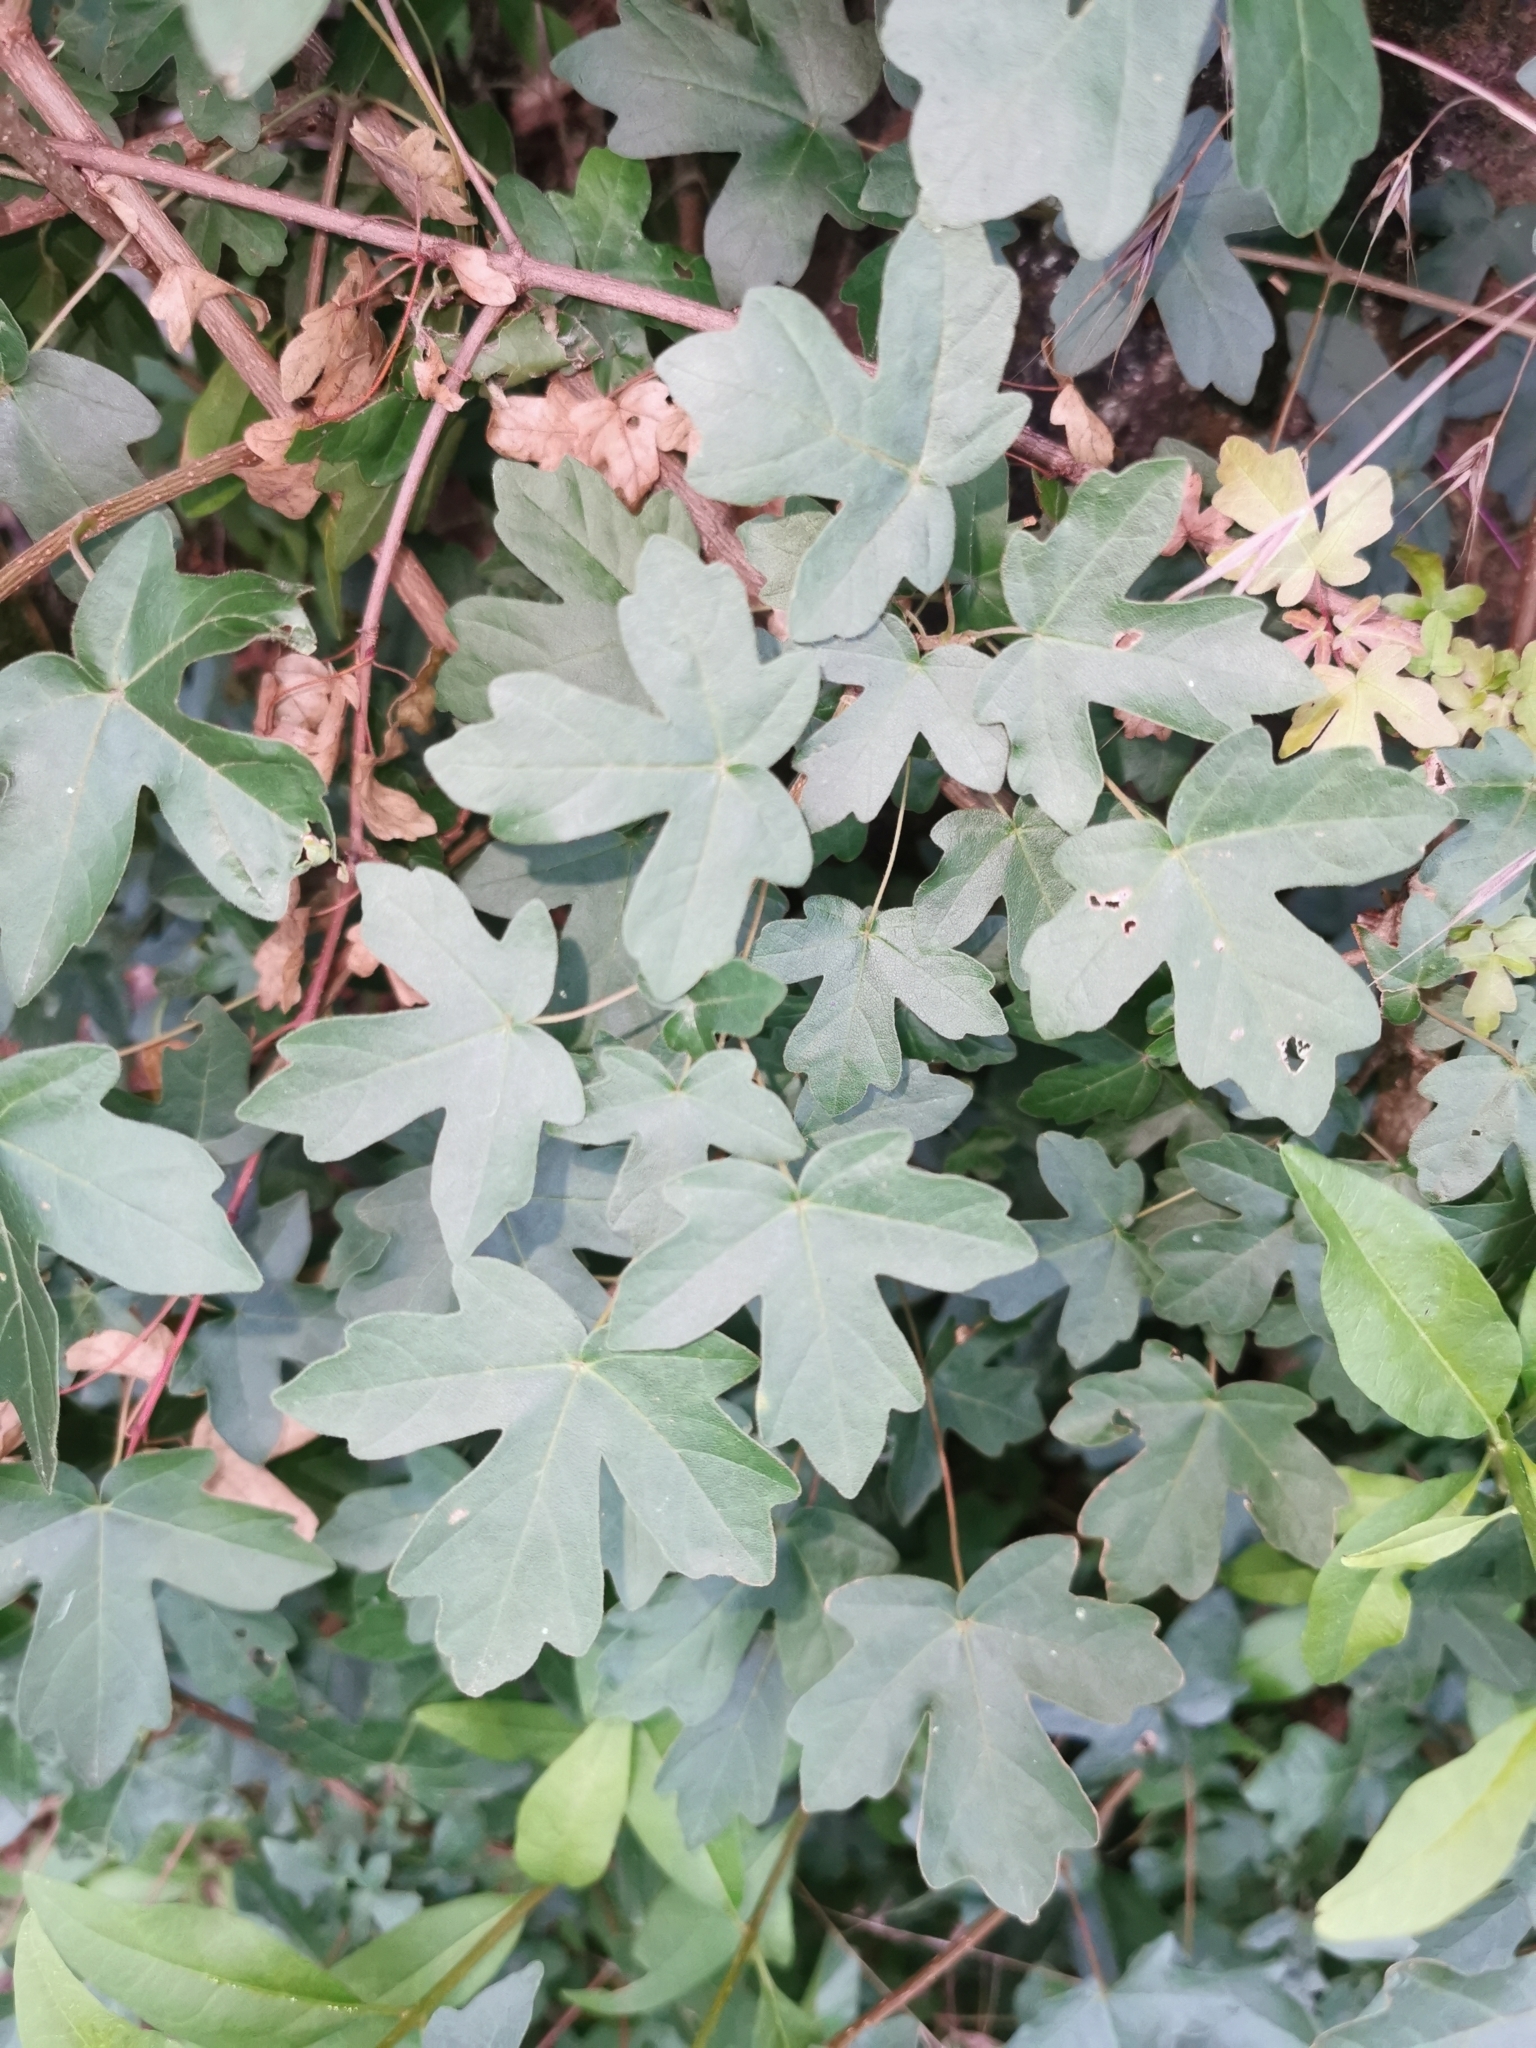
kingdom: Plantae
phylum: Tracheophyta
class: Magnoliopsida
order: Sapindales
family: Sapindaceae
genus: Acer
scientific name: Acer campestre
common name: Field maple
